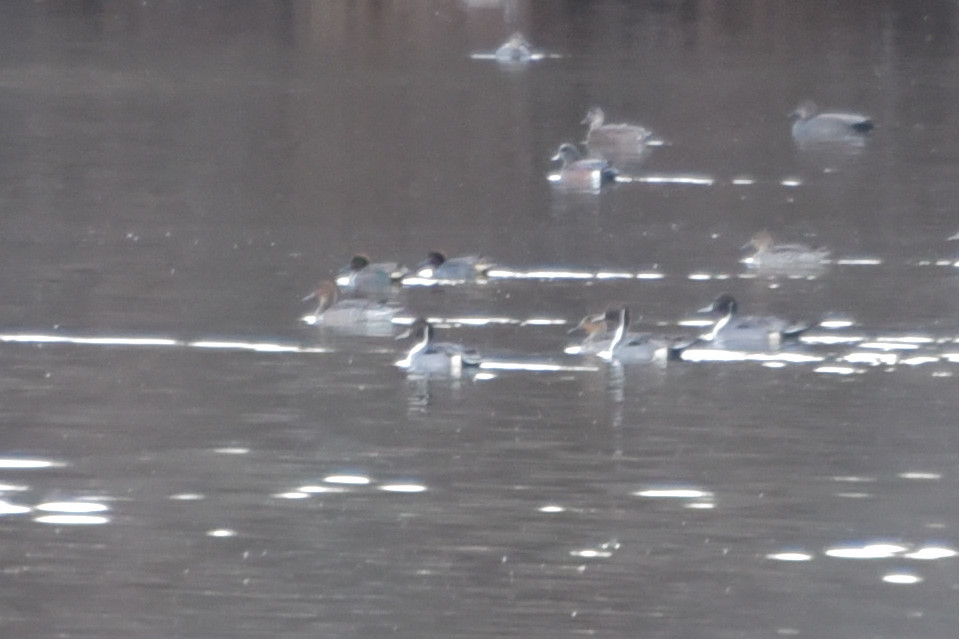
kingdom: Animalia
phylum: Chordata
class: Aves
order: Anseriformes
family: Anatidae
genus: Anas
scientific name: Anas acuta
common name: Northern pintail
